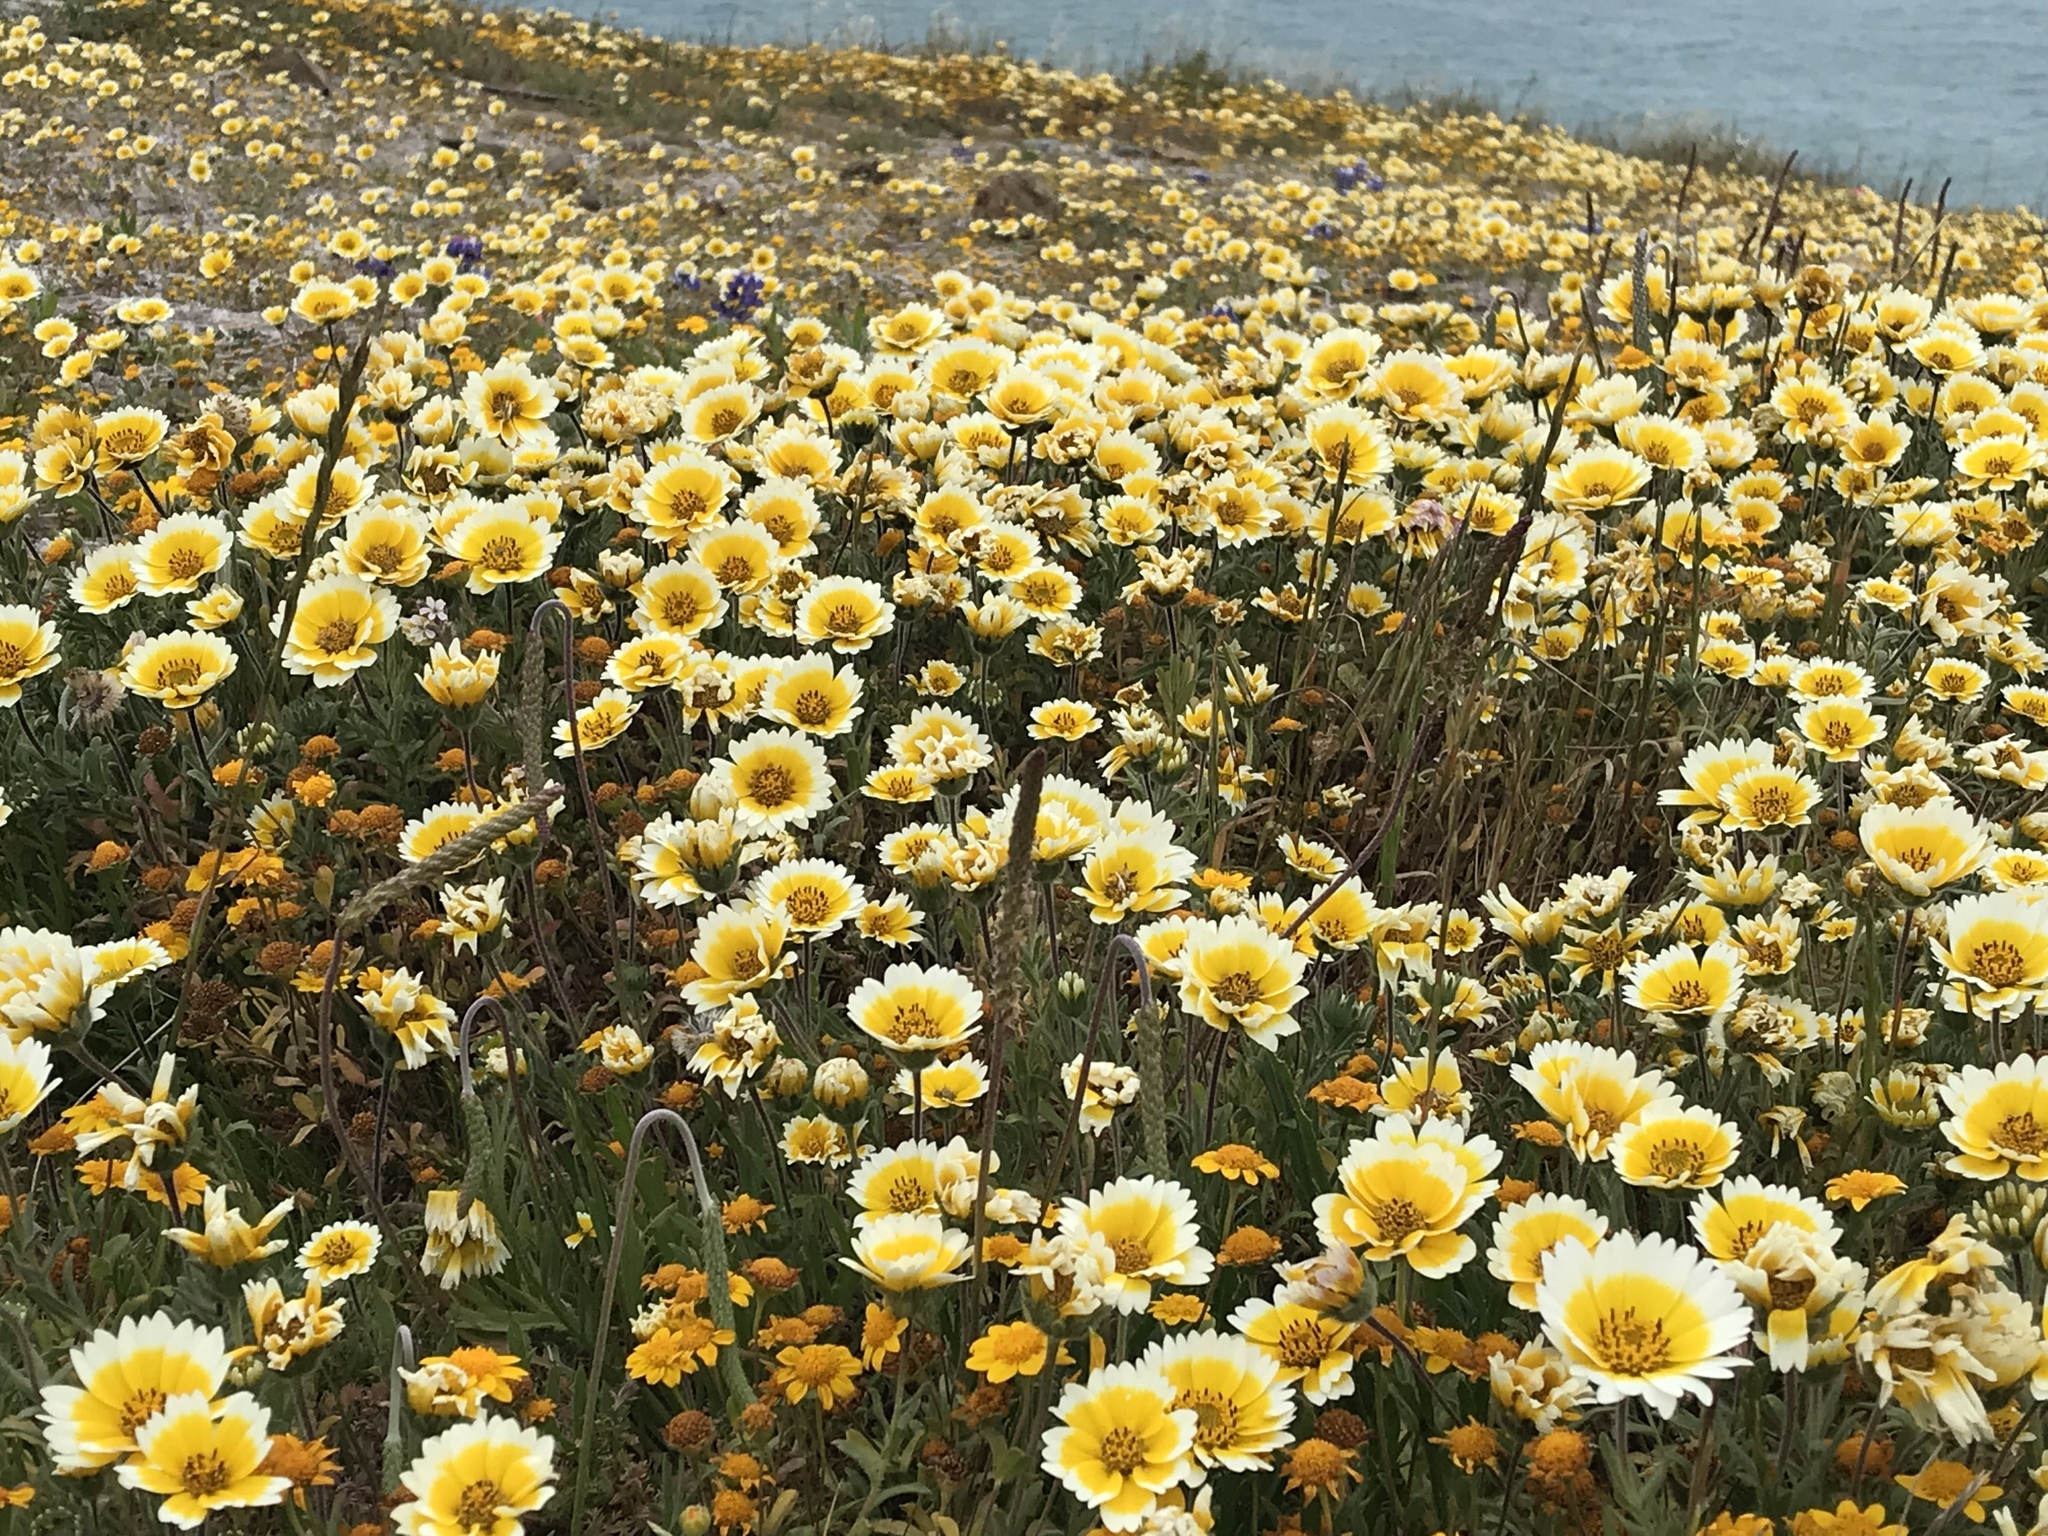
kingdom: Plantae
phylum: Tracheophyta
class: Magnoliopsida
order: Asterales
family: Asteraceae
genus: Layia
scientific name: Layia platyglossa
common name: Tidy-tips
